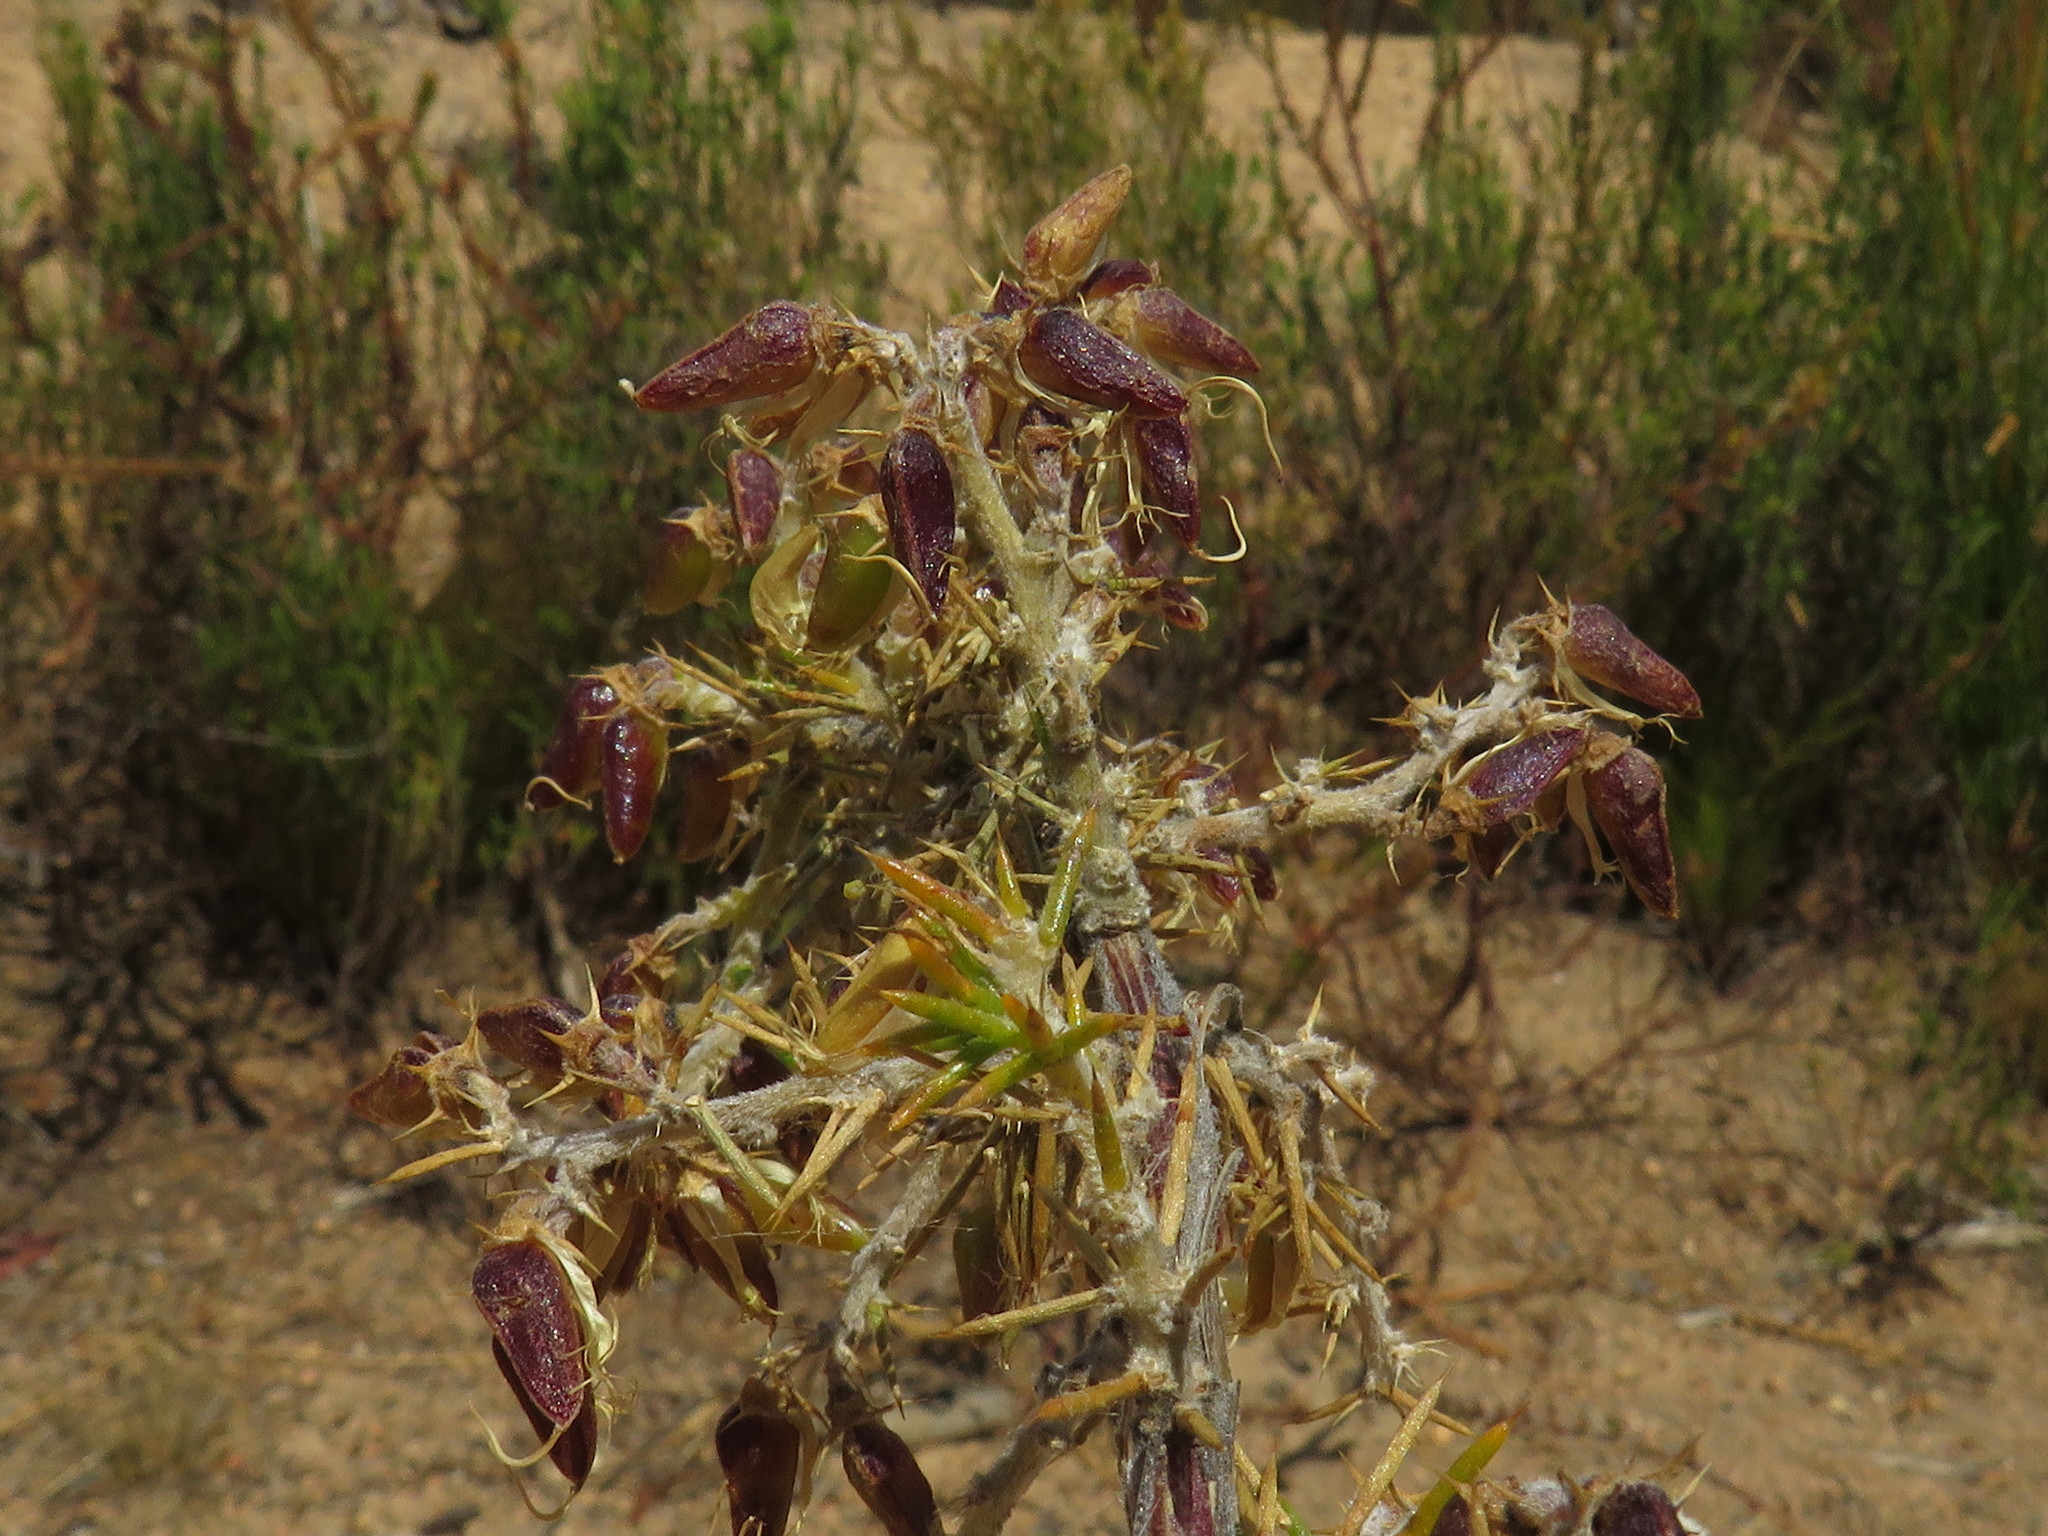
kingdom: Plantae
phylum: Tracheophyta
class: Magnoliopsida
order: Fabales
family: Fabaceae
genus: Aspalathus
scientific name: Aspalathus astroites
